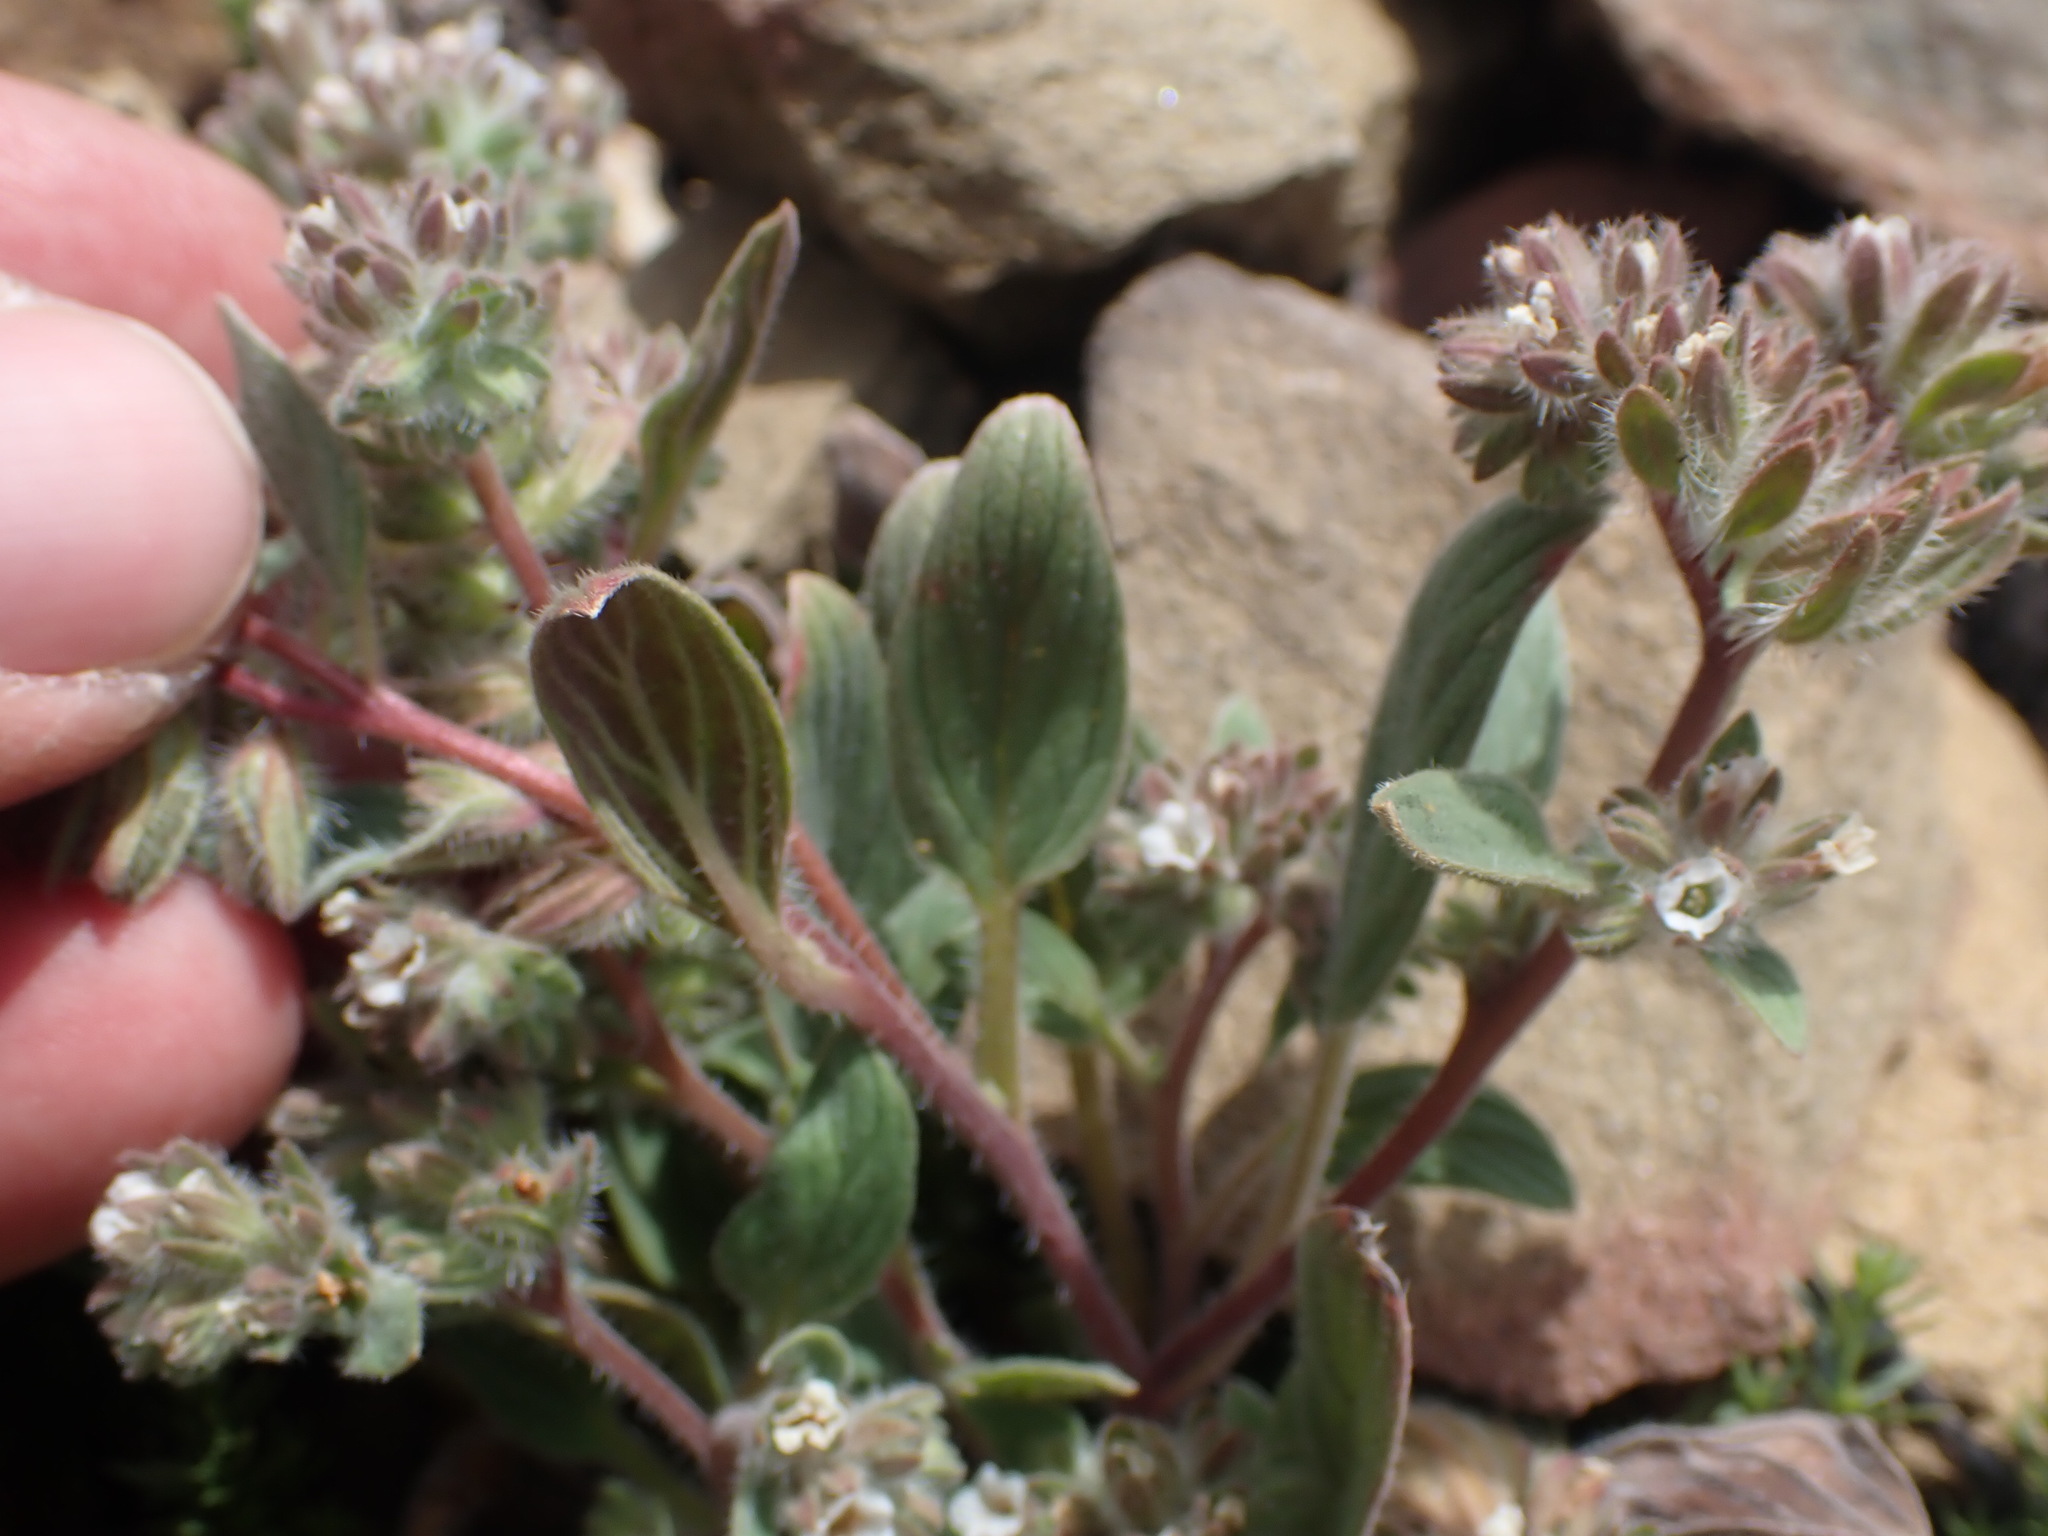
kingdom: Plantae
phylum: Tracheophyta
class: Magnoliopsida
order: Boraginales
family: Hydrophyllaceae
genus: Phacelia
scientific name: Phacelia phacelioides
